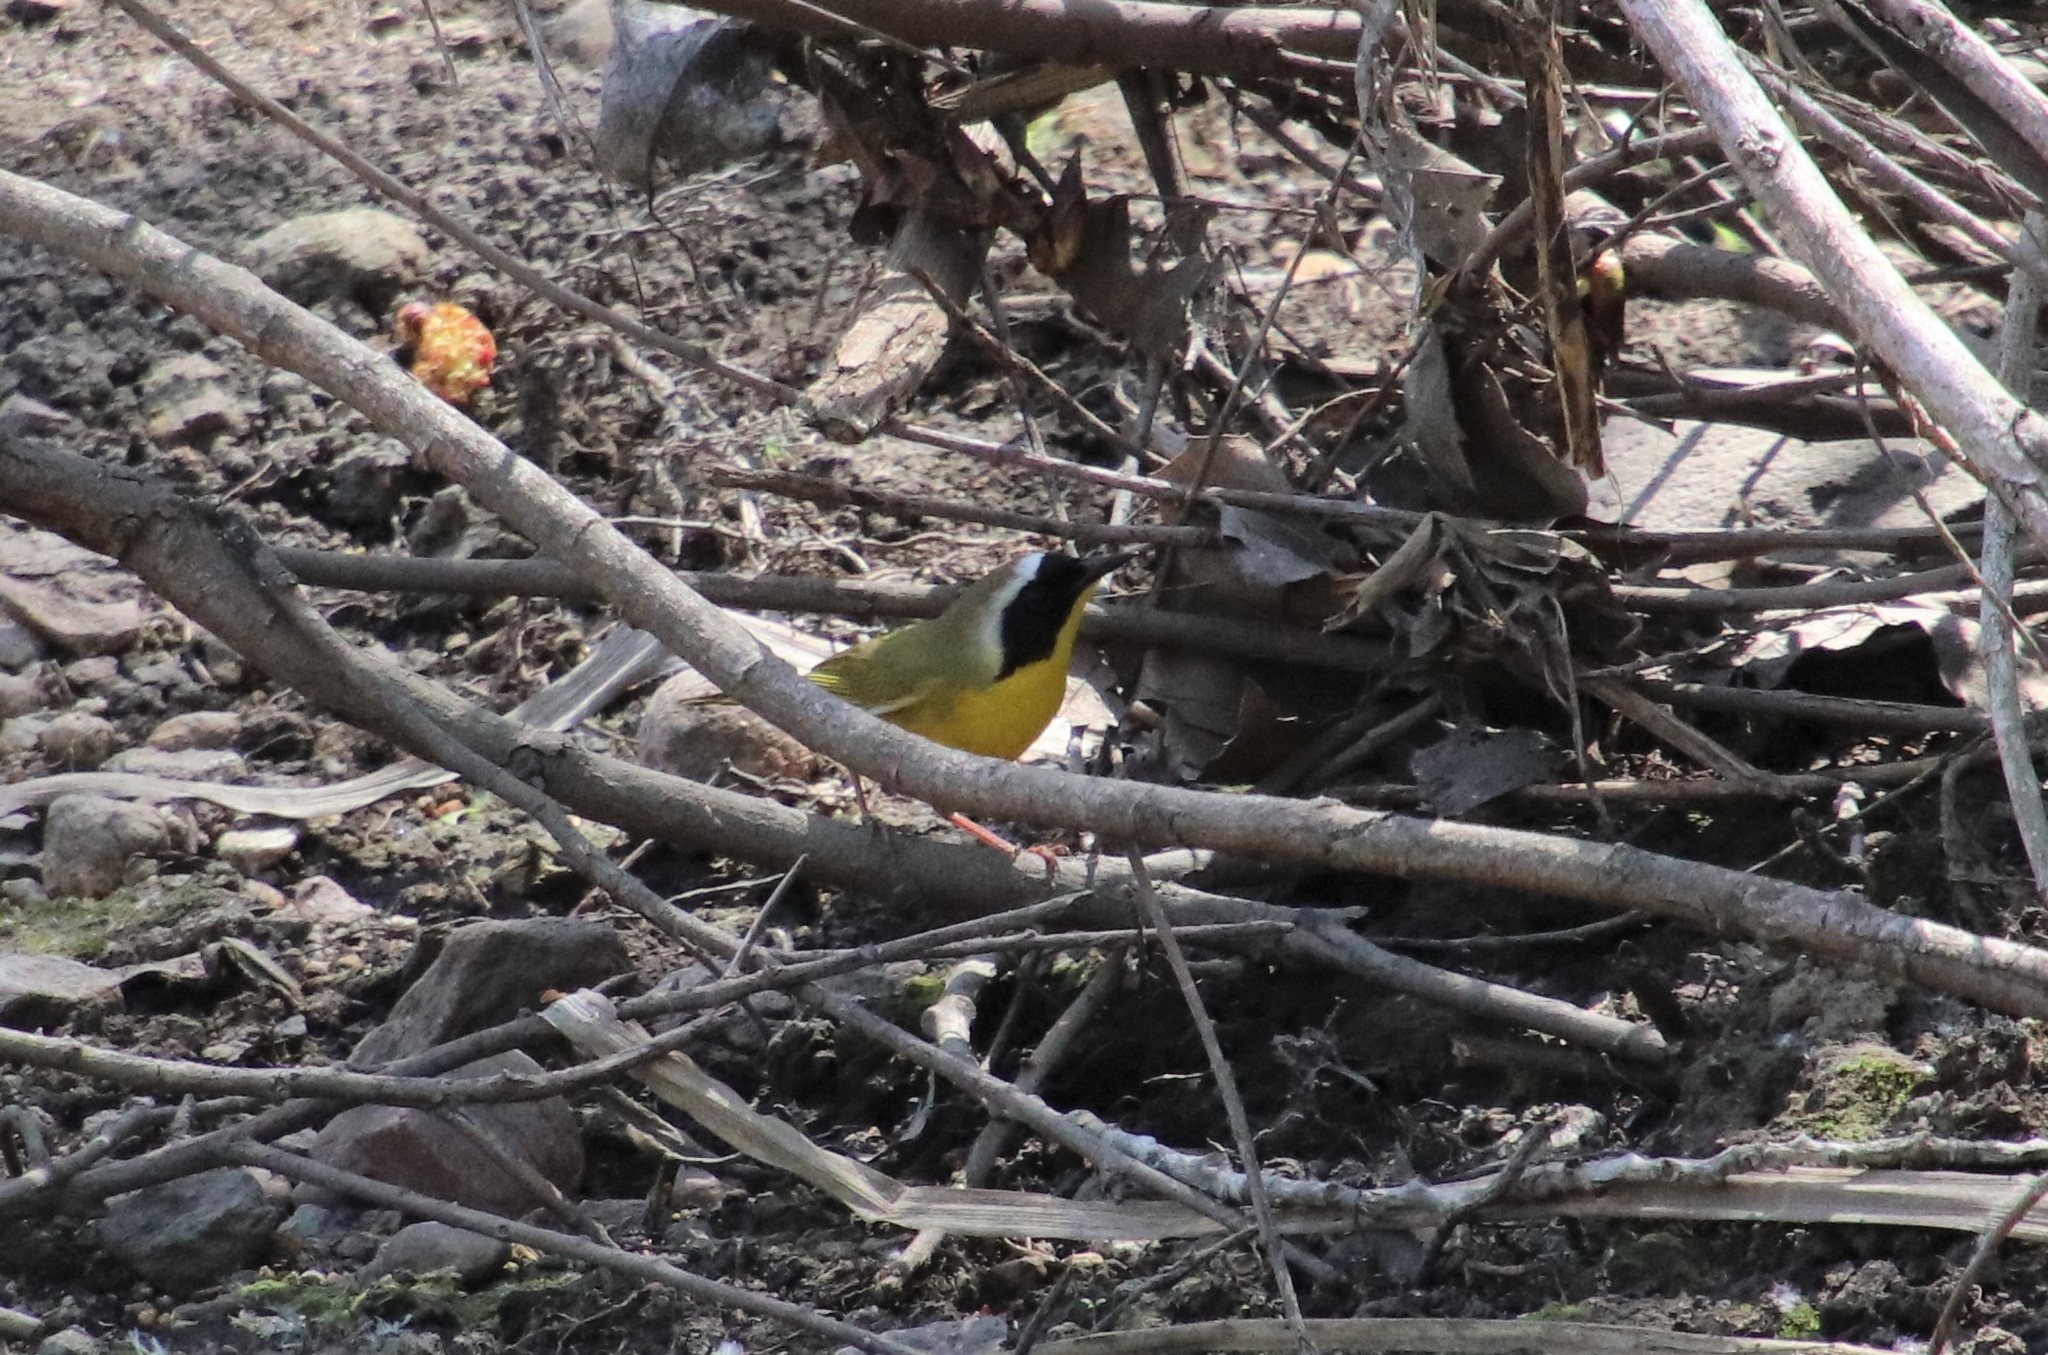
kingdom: Animalia
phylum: Chordata
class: Aves
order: Passeriformes
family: Parulidae
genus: Geothlypis
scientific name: Geothlypis trichas
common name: Common yellowthroat
